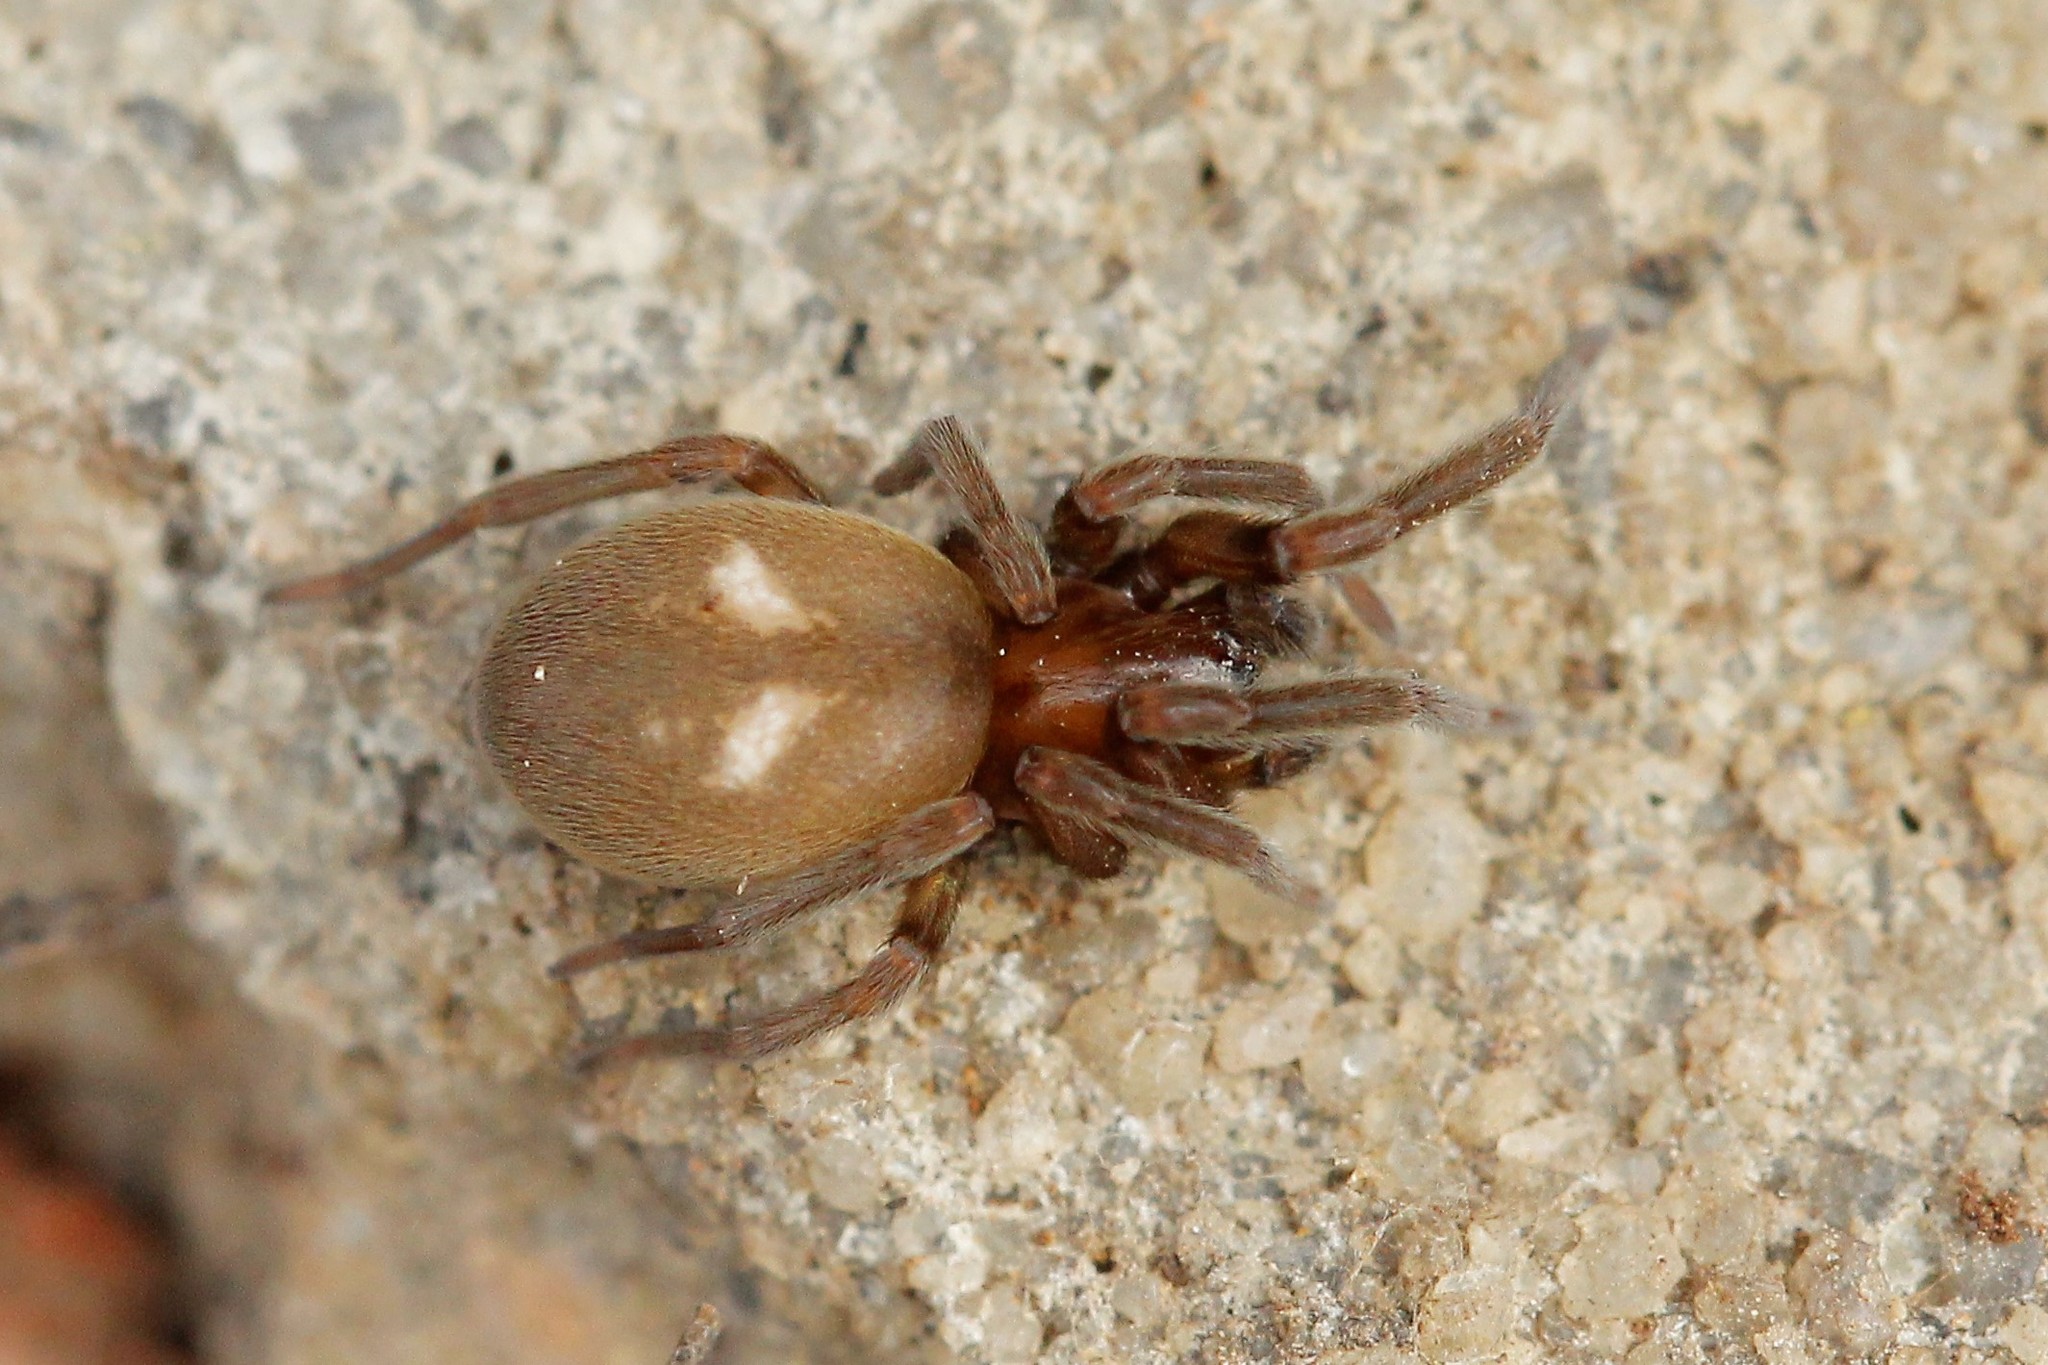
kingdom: Animalia
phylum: Arthropoda
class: Arachnida
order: Araneae
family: Titanoecidae
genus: Titanoeca
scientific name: Titanoeca schineri
